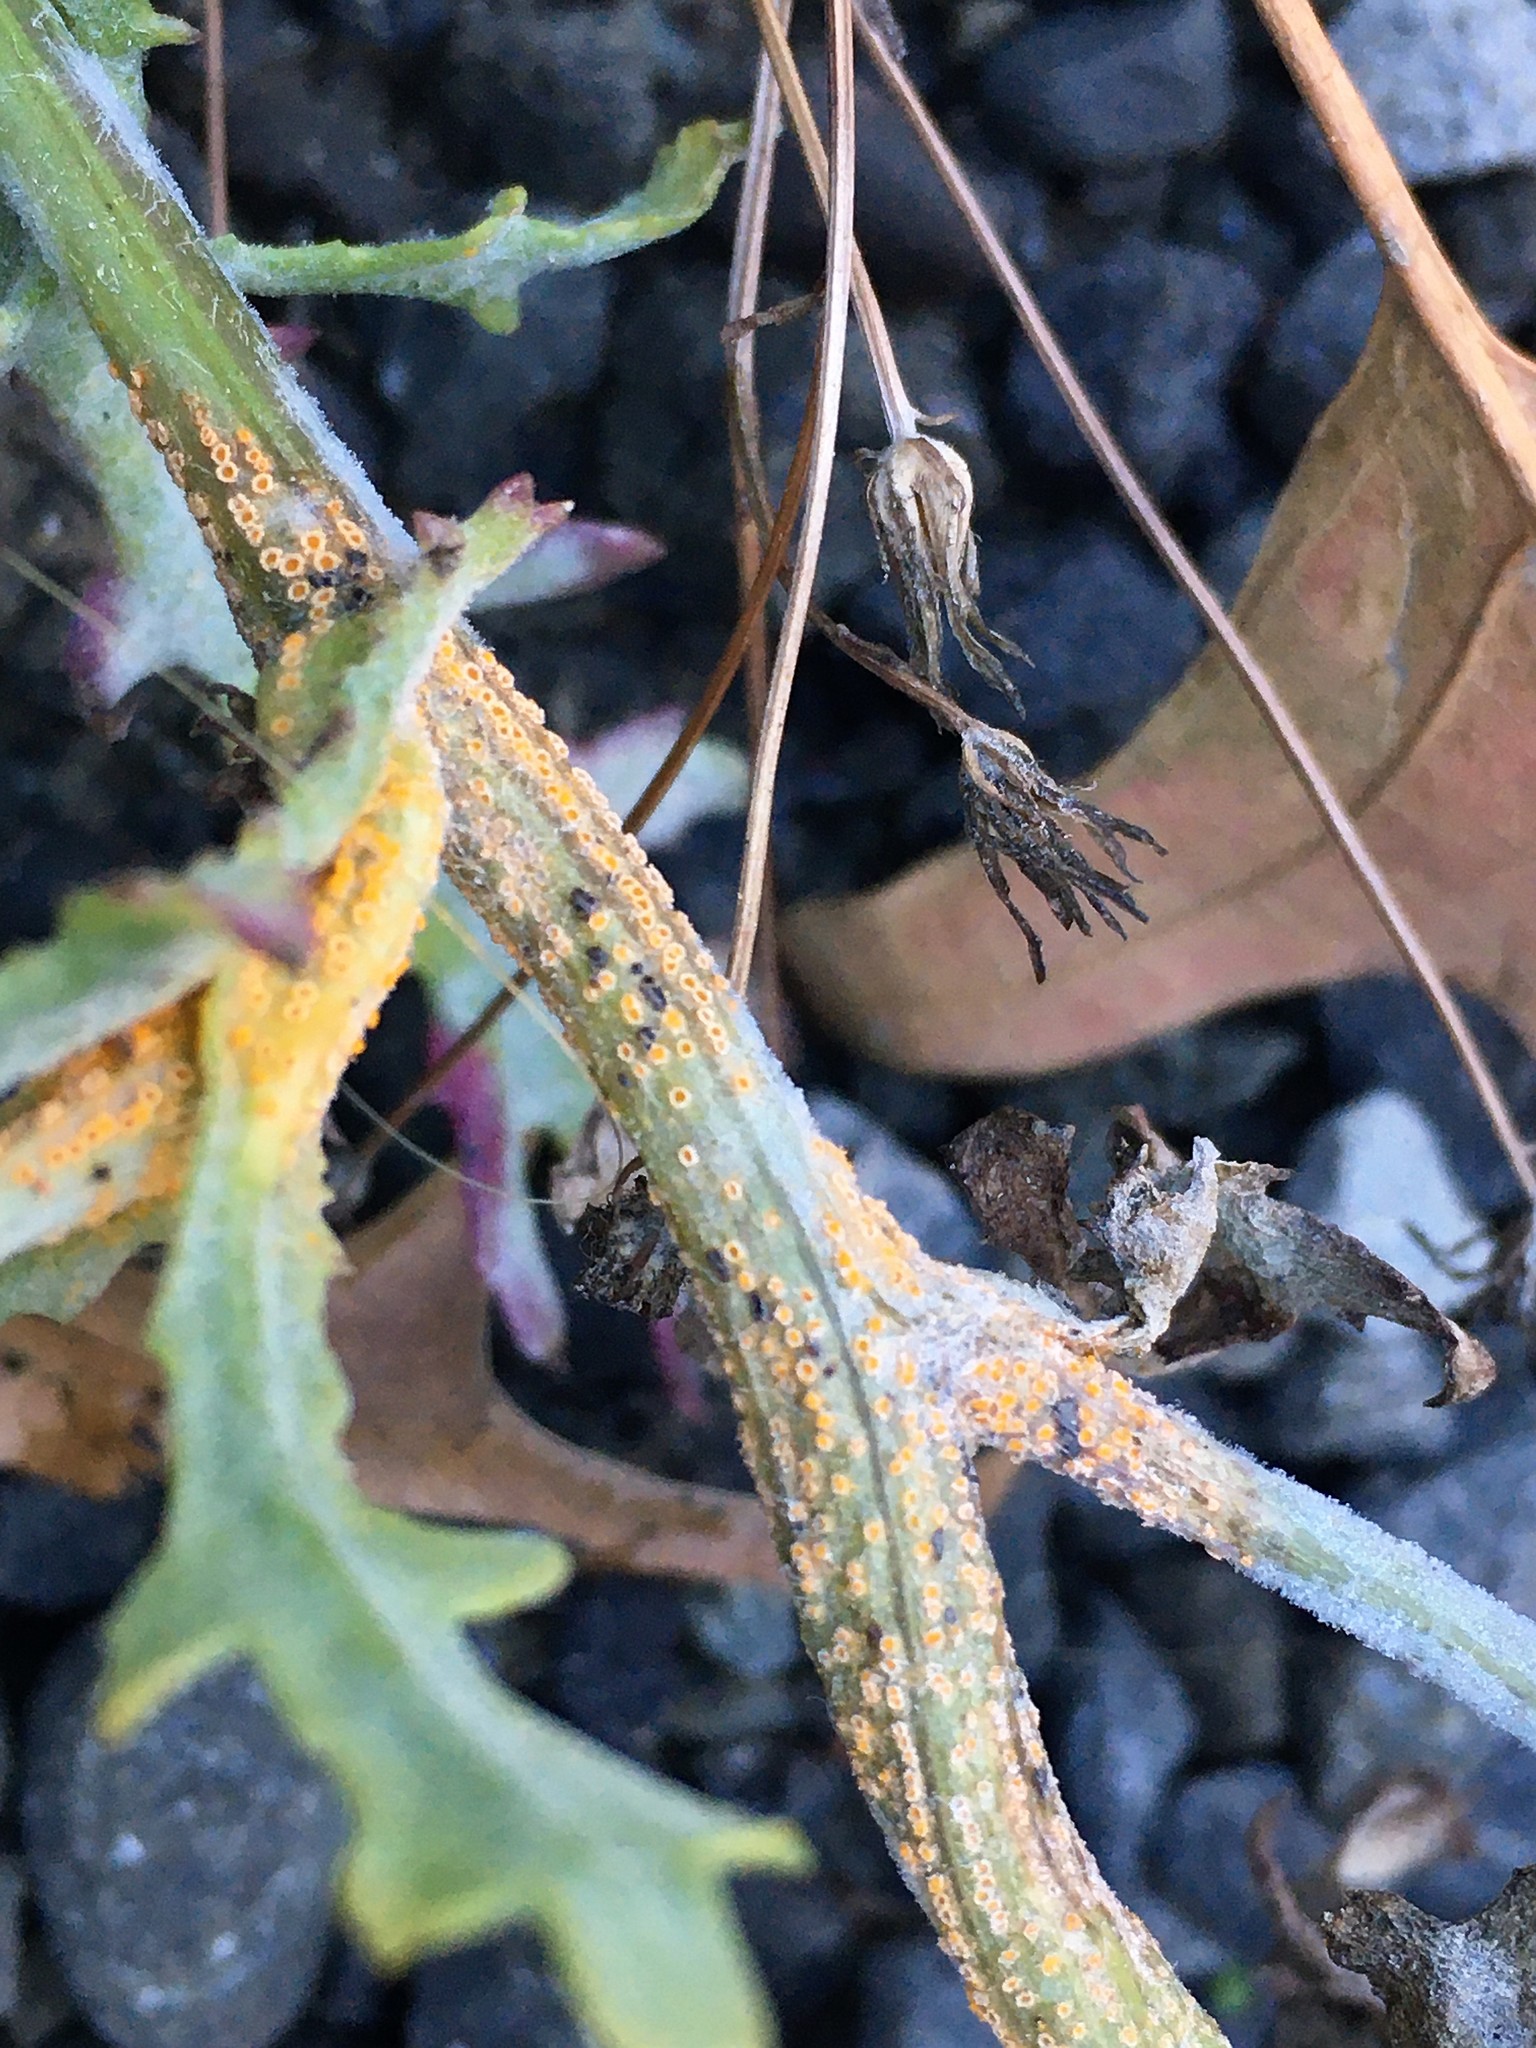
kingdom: Fungi
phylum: Basidiomycota
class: Pucciniomycetes
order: Pucciniales
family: Pucciniaceae
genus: Puccinia
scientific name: Puccinia lagenophorae
